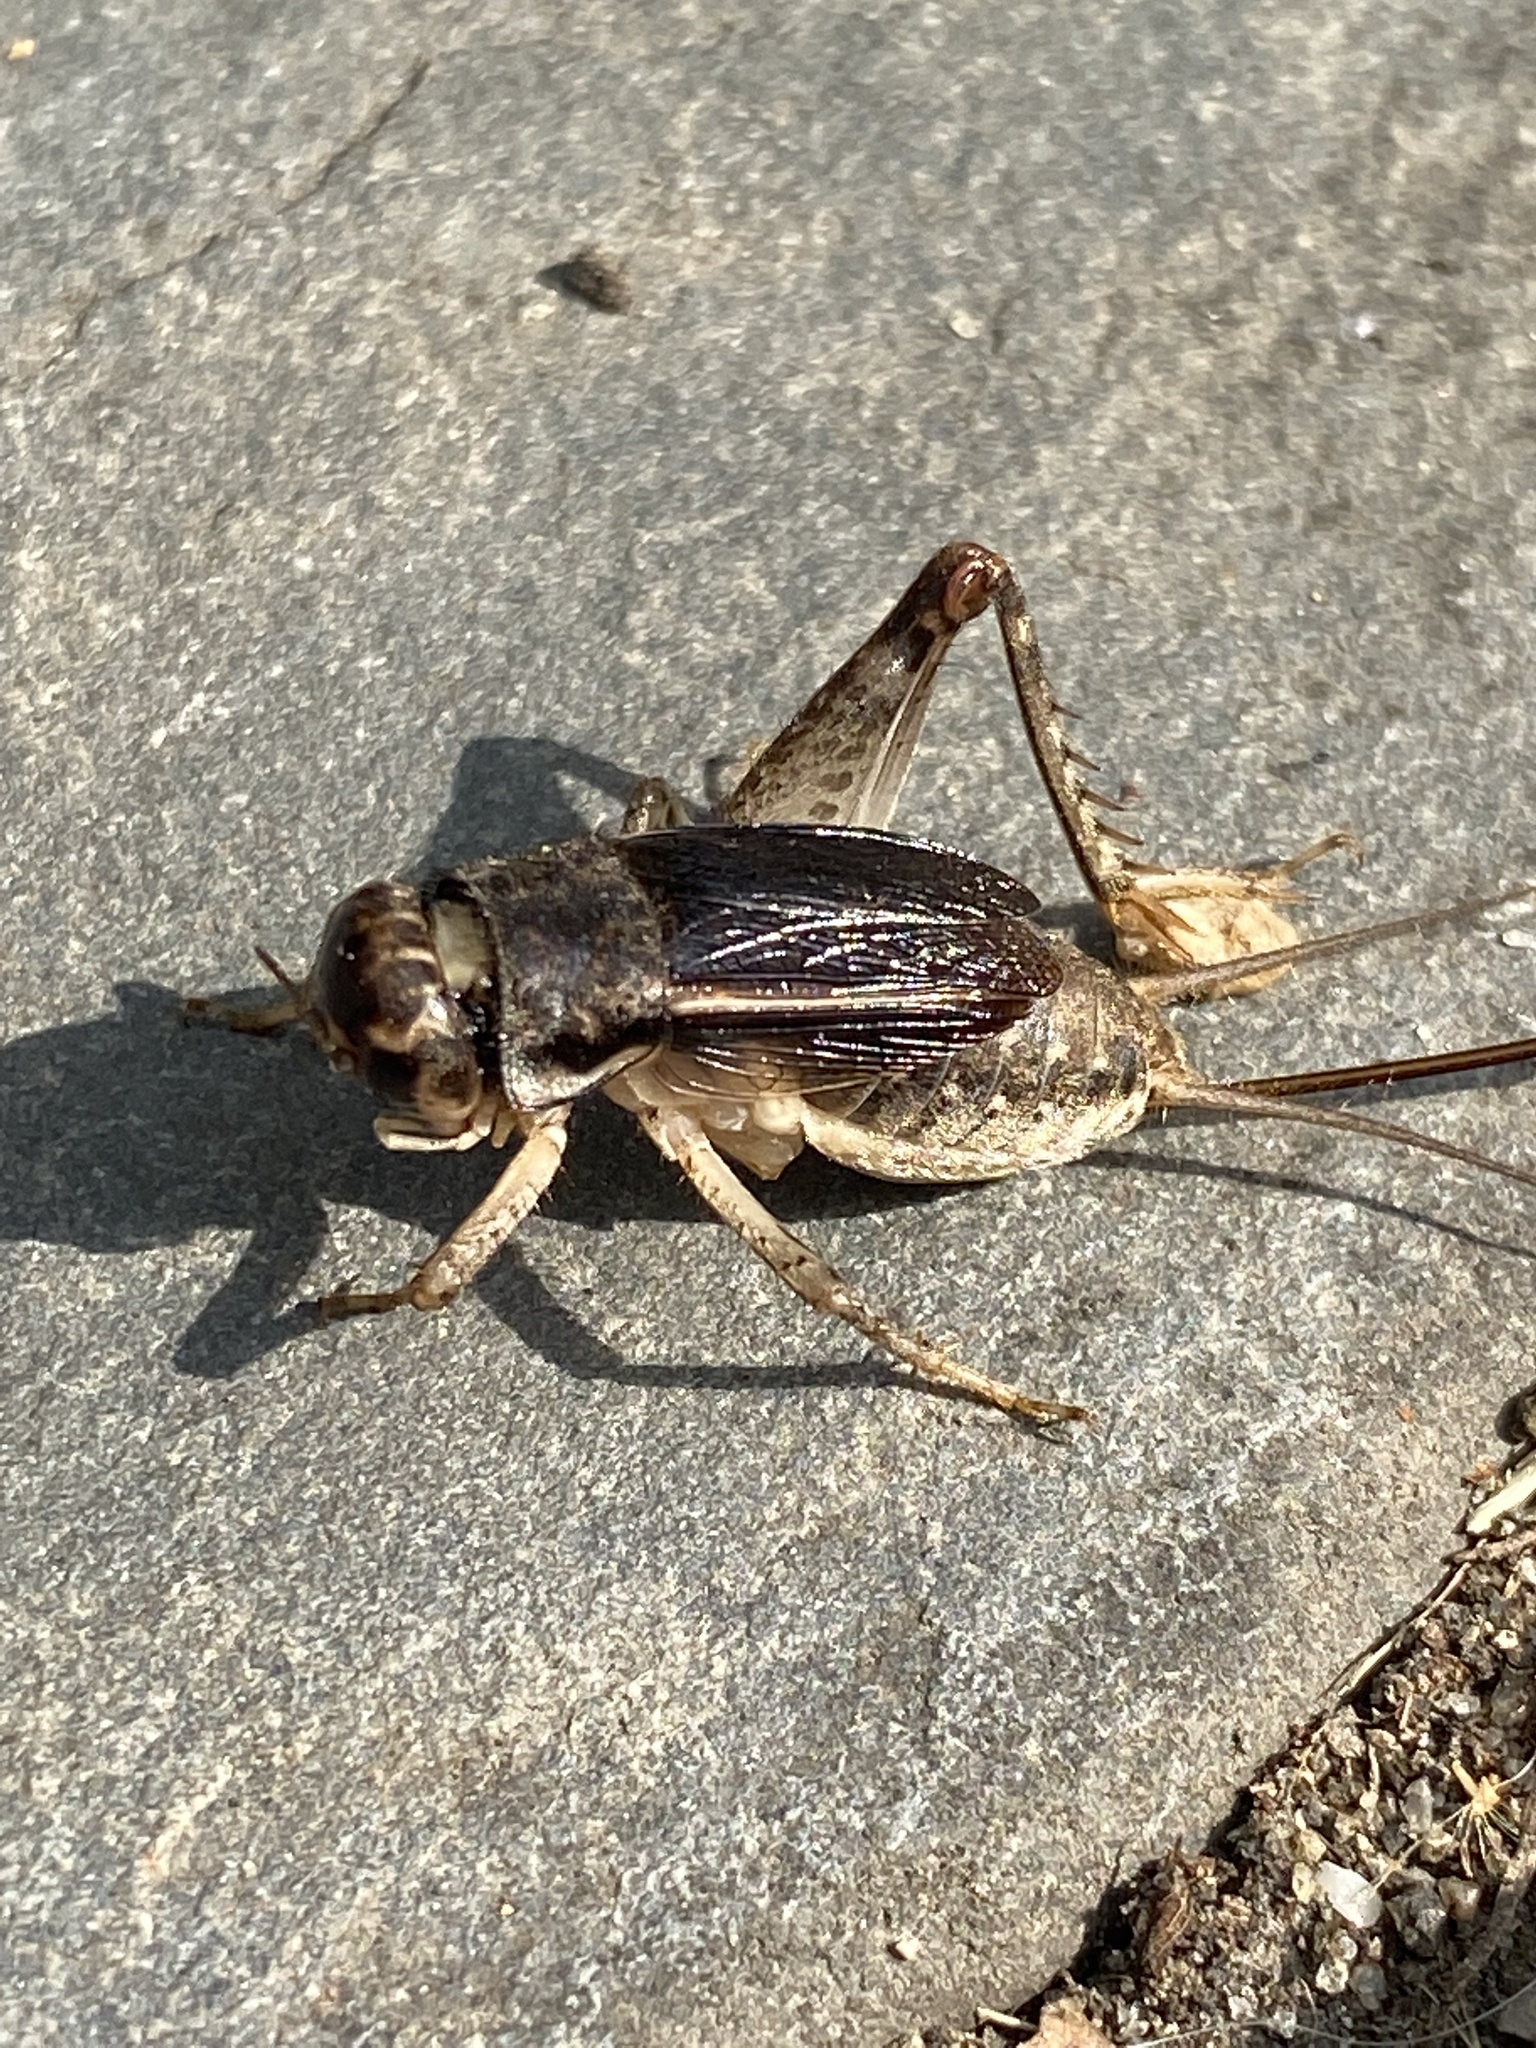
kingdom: Animalia
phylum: Arthropoda
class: Insecta
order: Orthoptera
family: Gryllidae
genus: Velarifictorus
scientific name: Velarifictorus micado
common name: Japanese burrowing cricket
